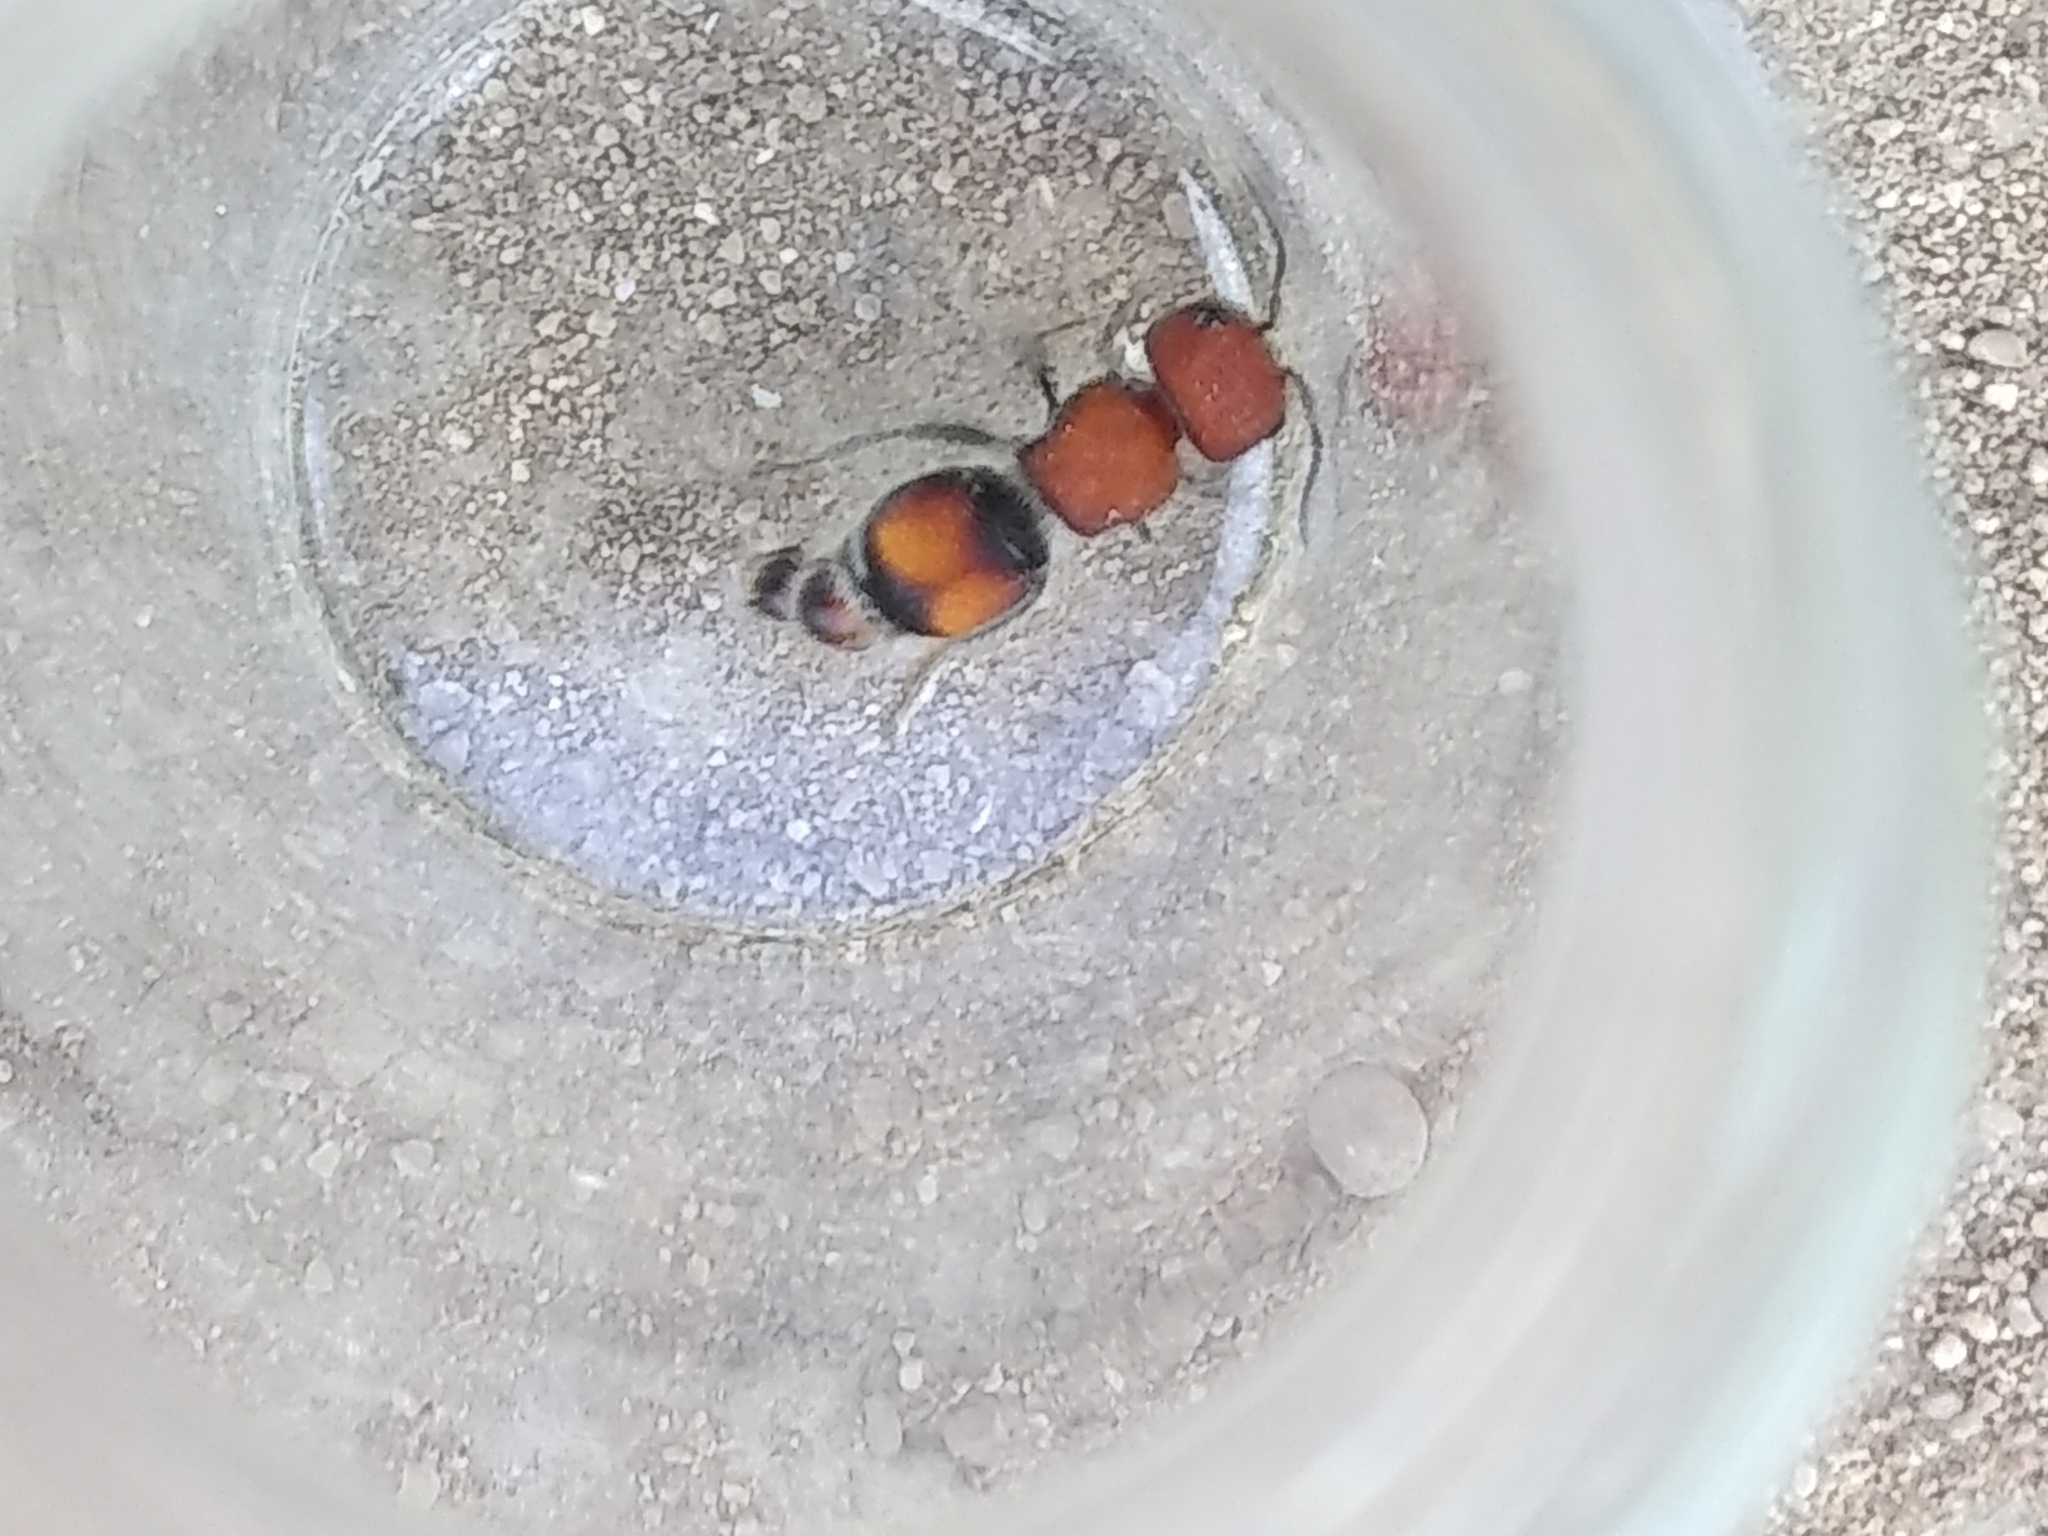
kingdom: Animalia
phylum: Arthropoda
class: Insecta
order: Hymenoptera
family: Mutillidae
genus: Pseudomethoca
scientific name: Pseudomethoca
